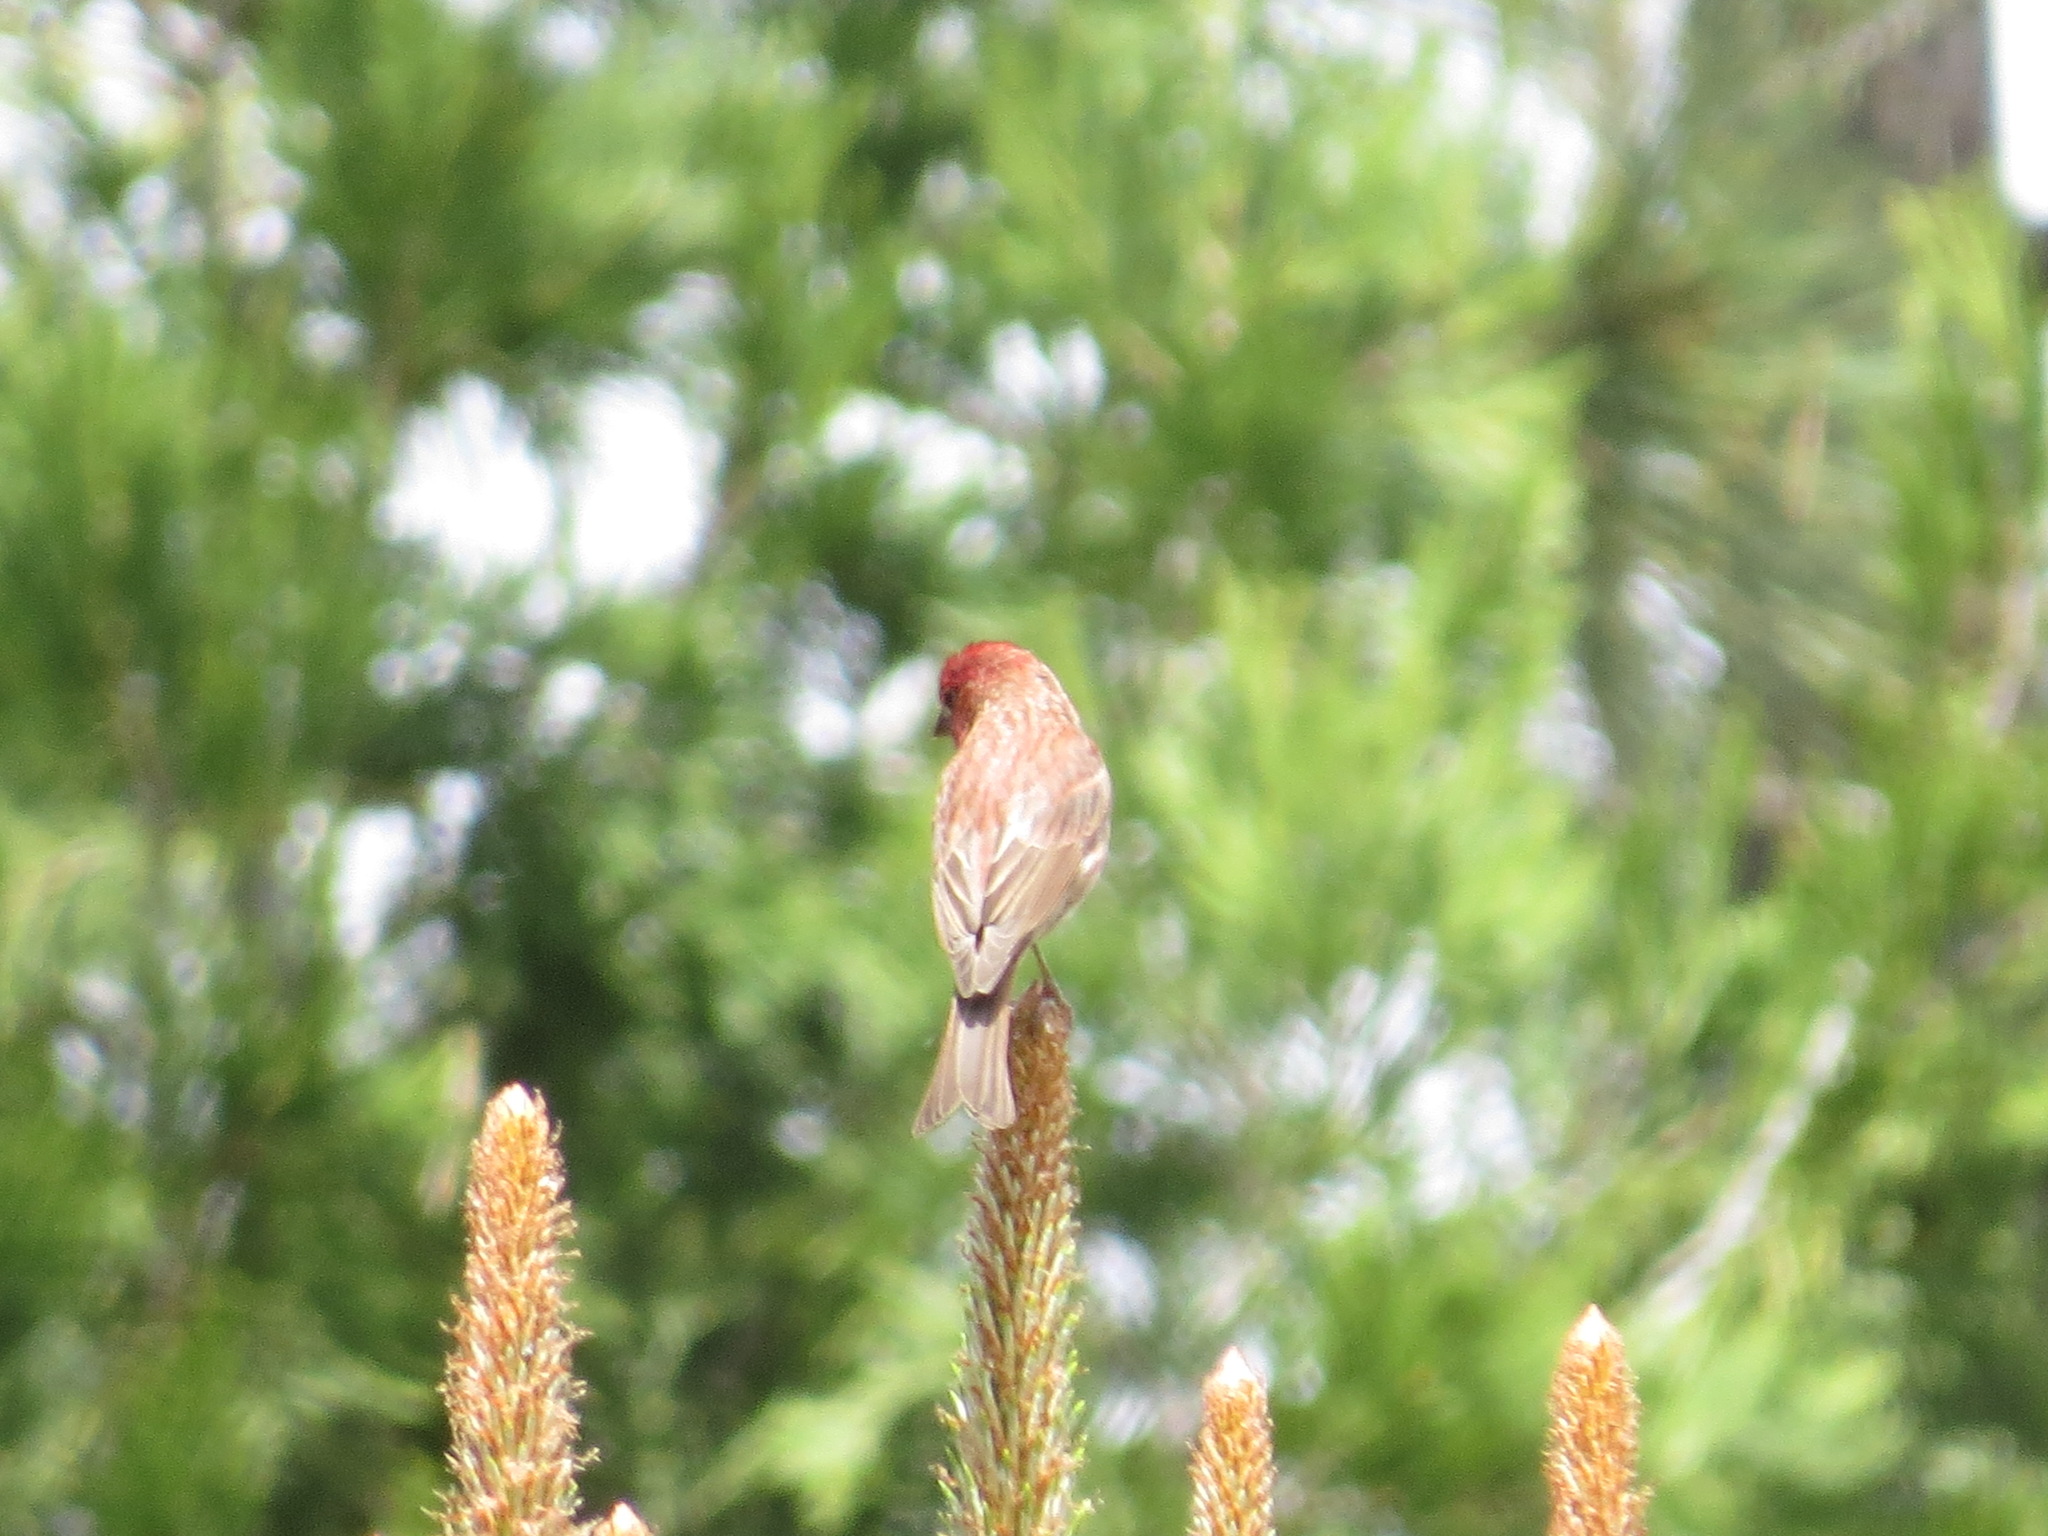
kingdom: Animalia
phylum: Chordata
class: Aves
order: Passeriformes
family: Fringillidae
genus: Haemorhous
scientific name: Haemorhous cassinii
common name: Cassin's finch
